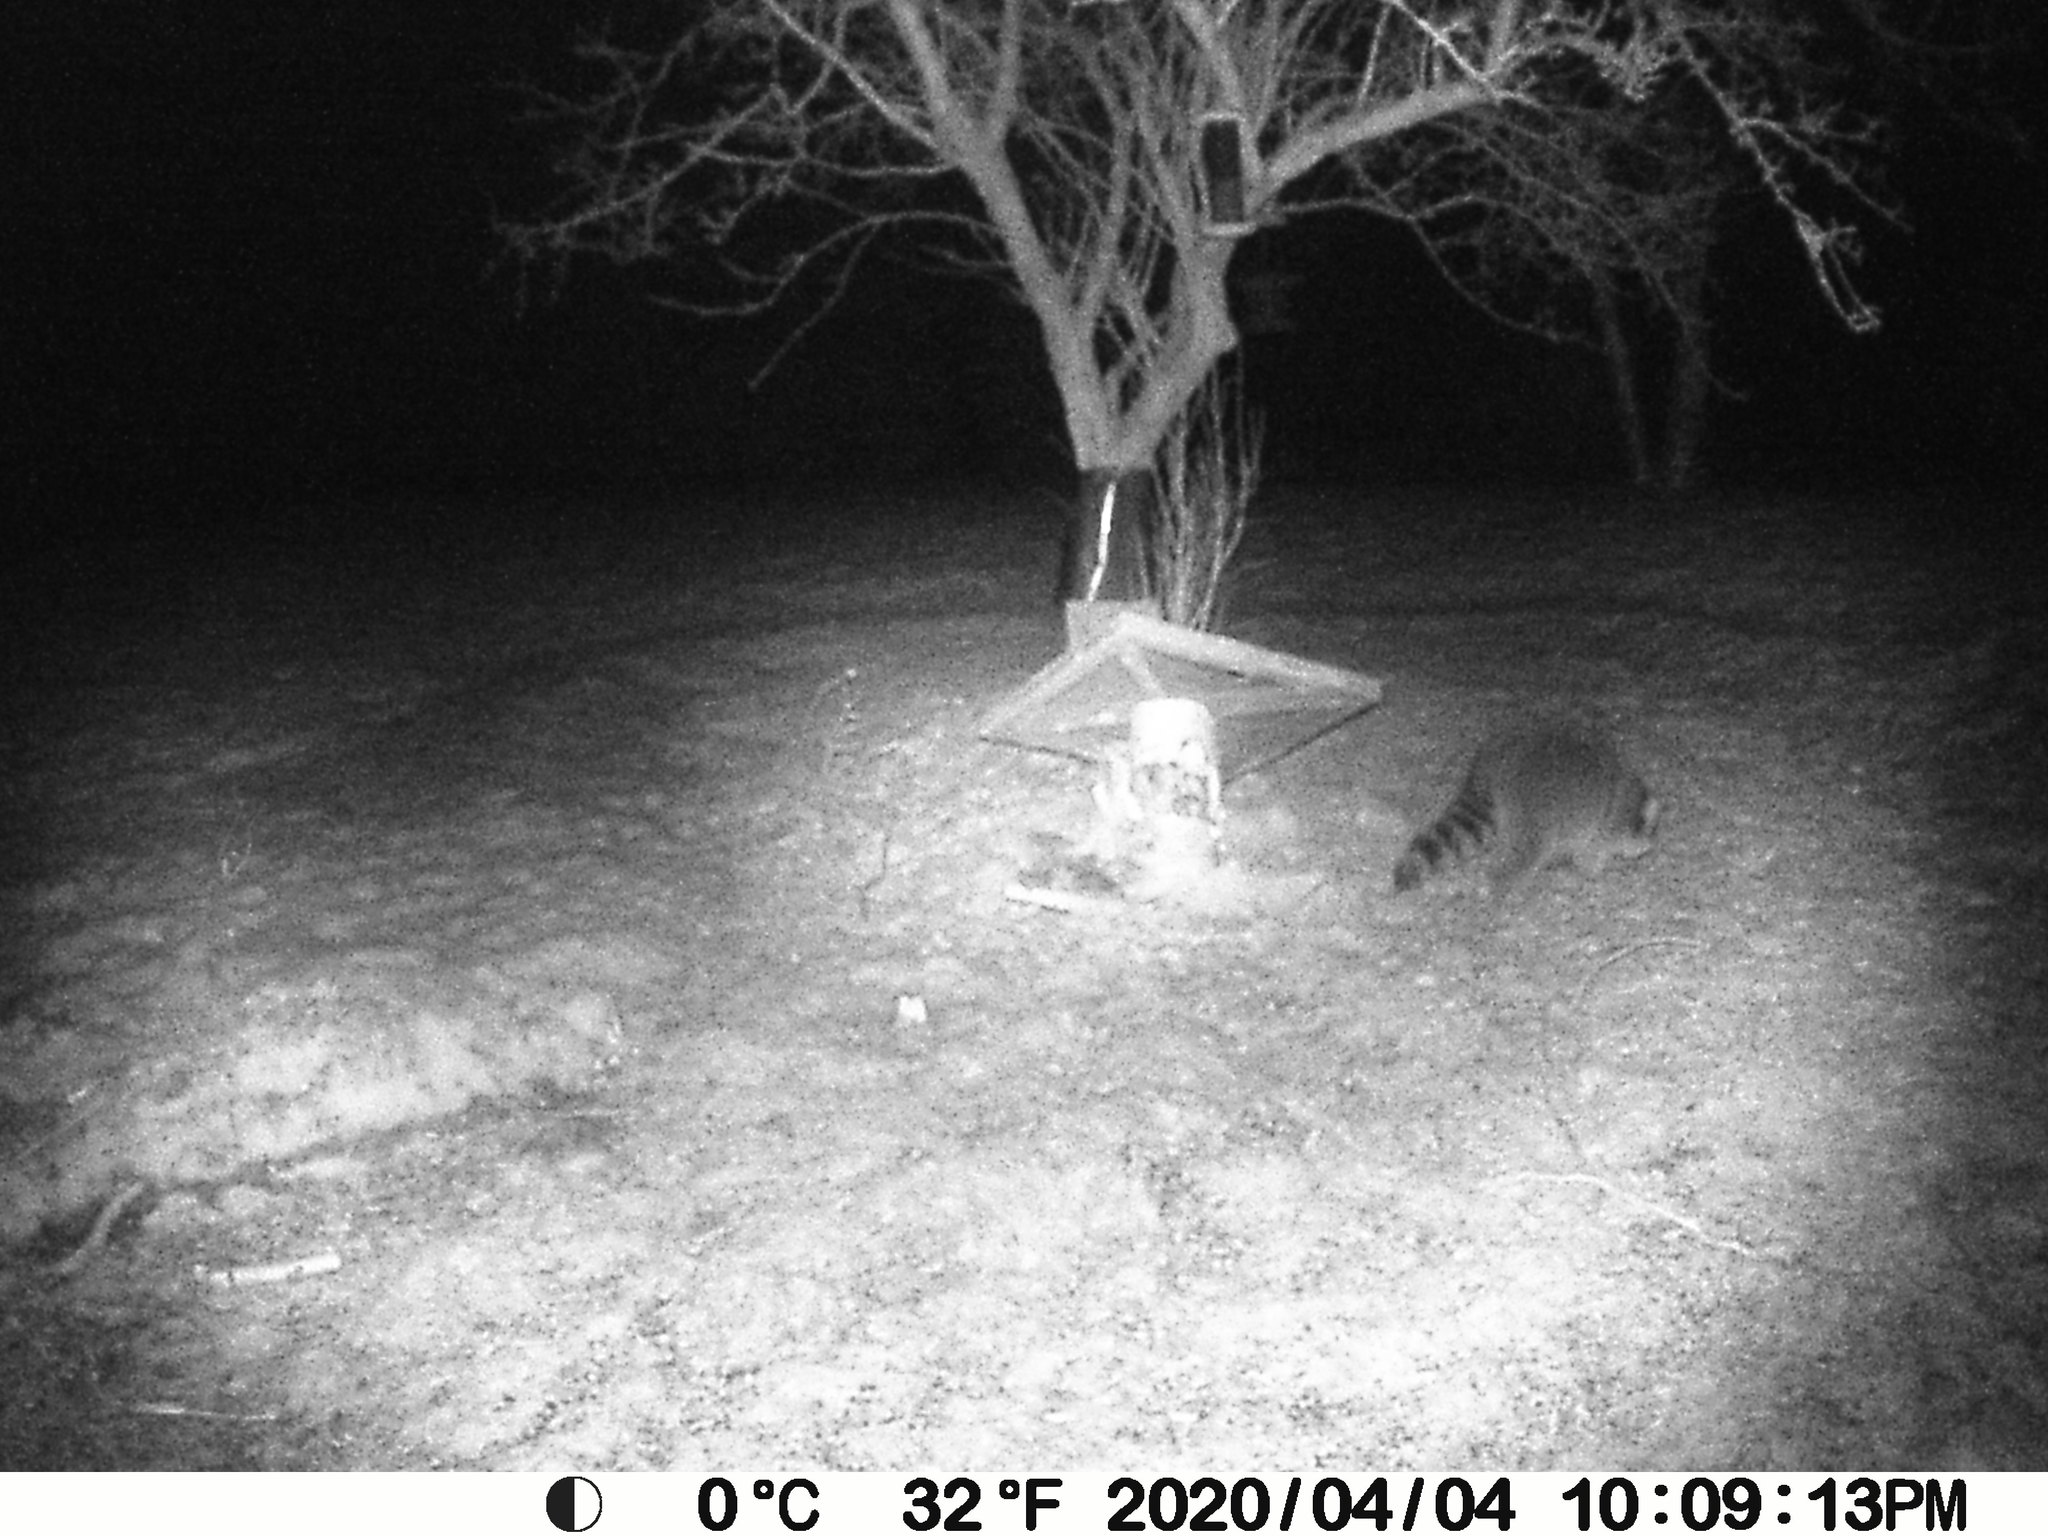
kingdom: Animalia
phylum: Chordata
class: Mammalia
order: Carnivora
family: Procyonidae
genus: Procyon
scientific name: Procyon lotor
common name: Raccoon
